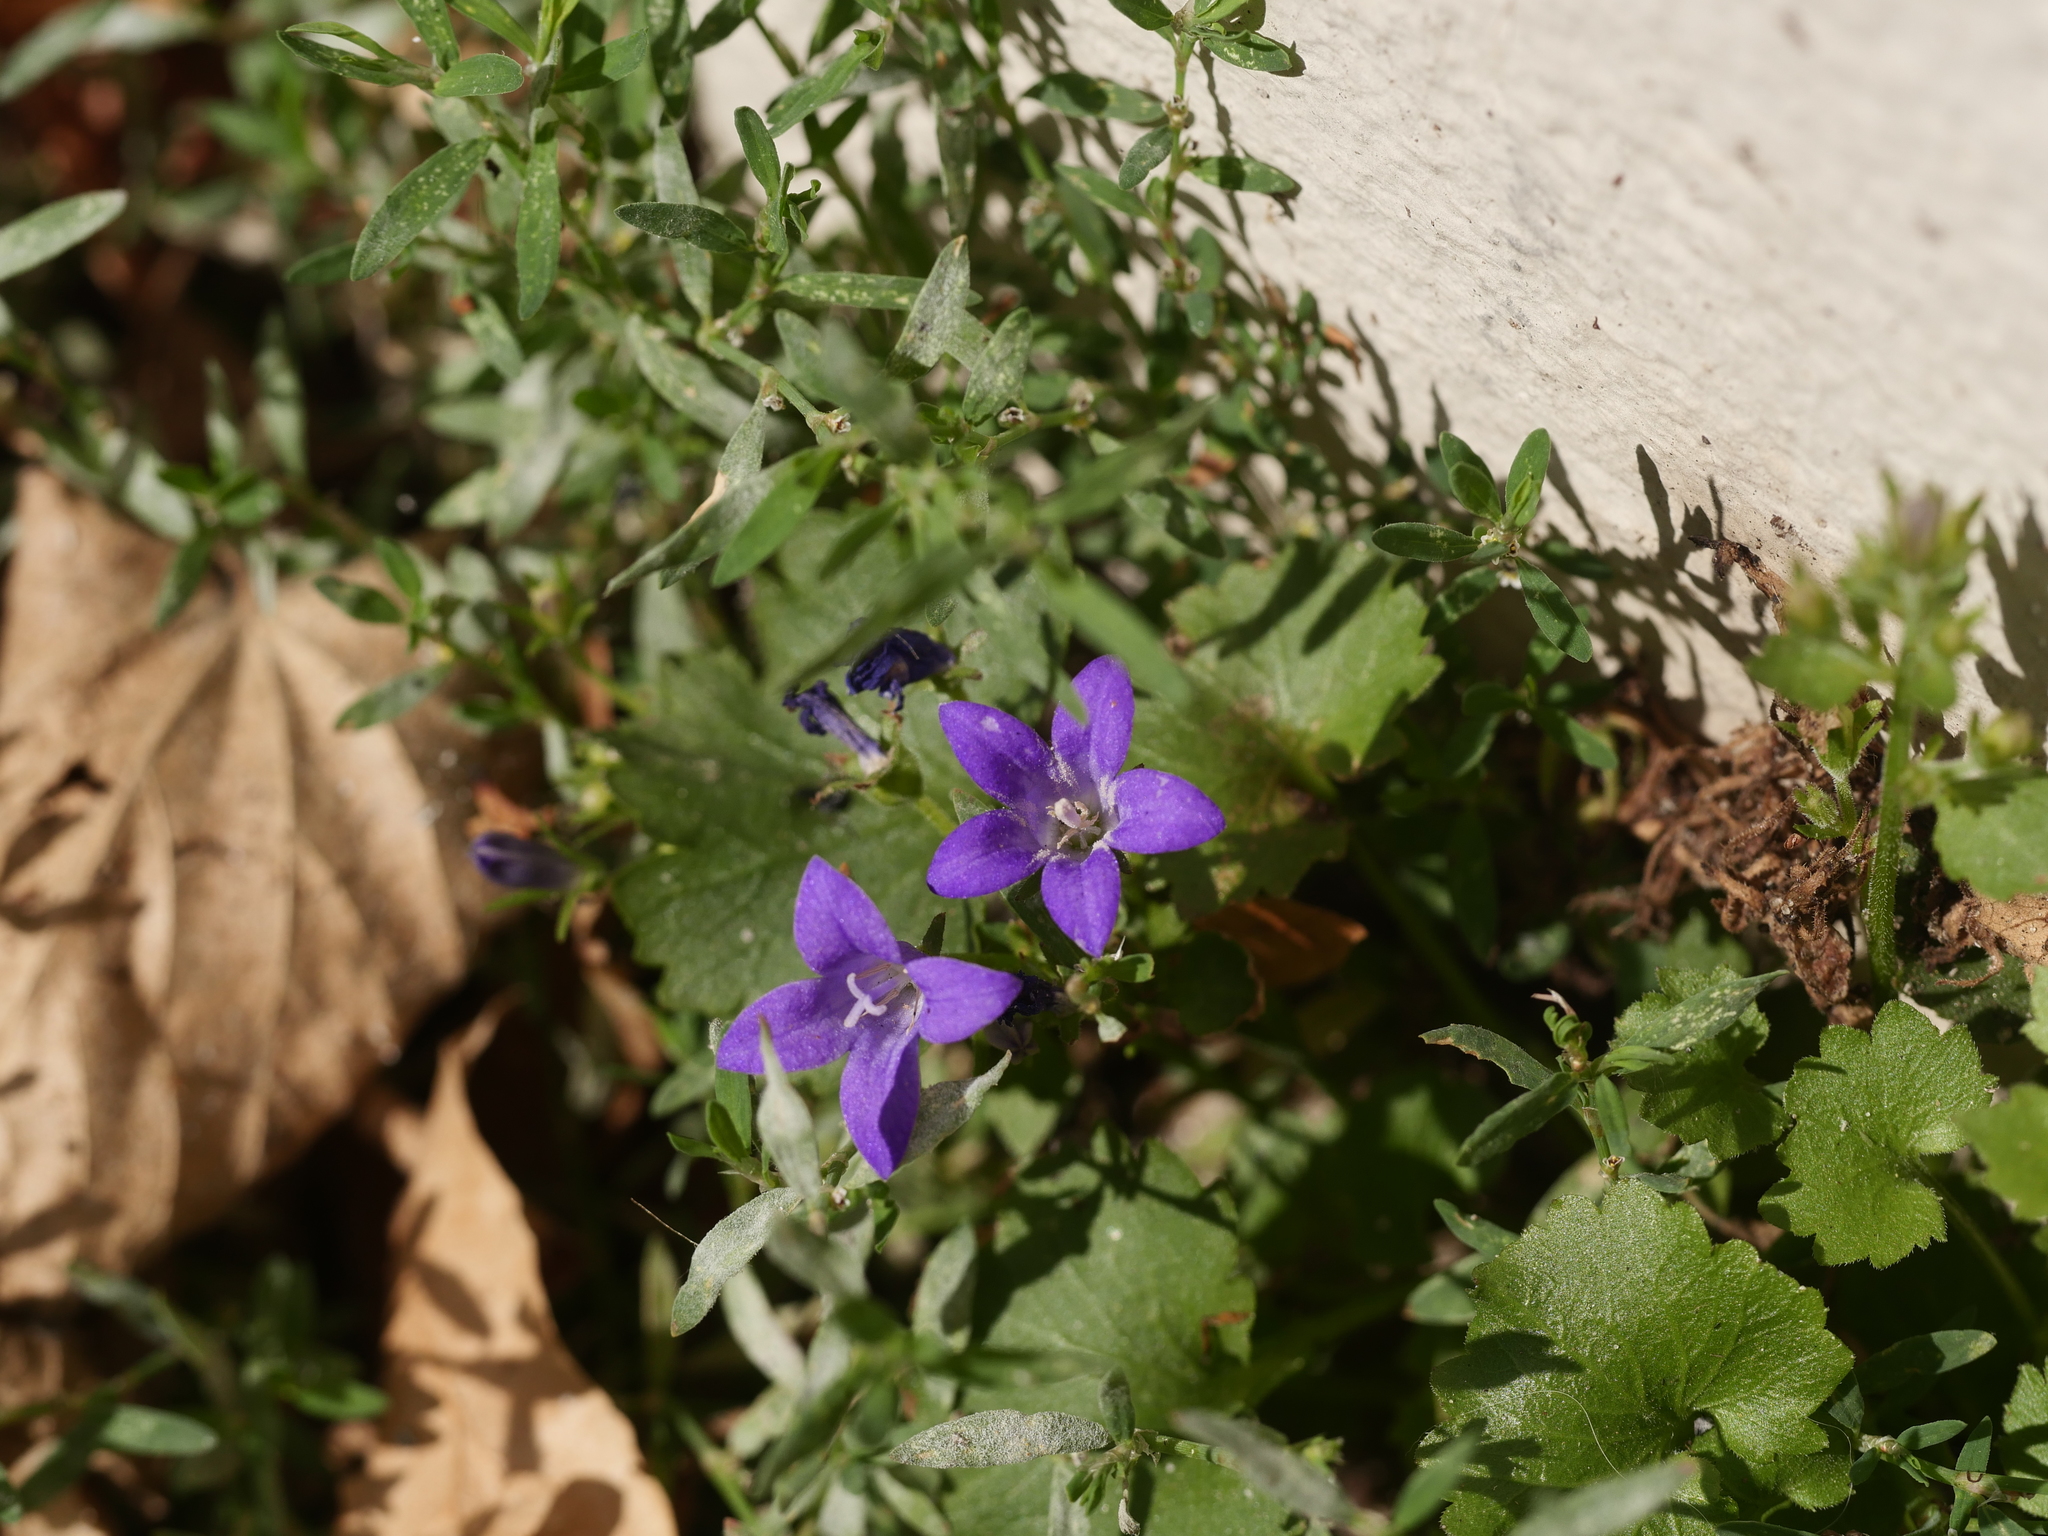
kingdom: Plantae
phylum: Tracheophyta
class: Magnoliopsida
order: Asterales
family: Campanulaceae
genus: Campanula
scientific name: Campanula poscharskyana
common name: Trailing bellflower
